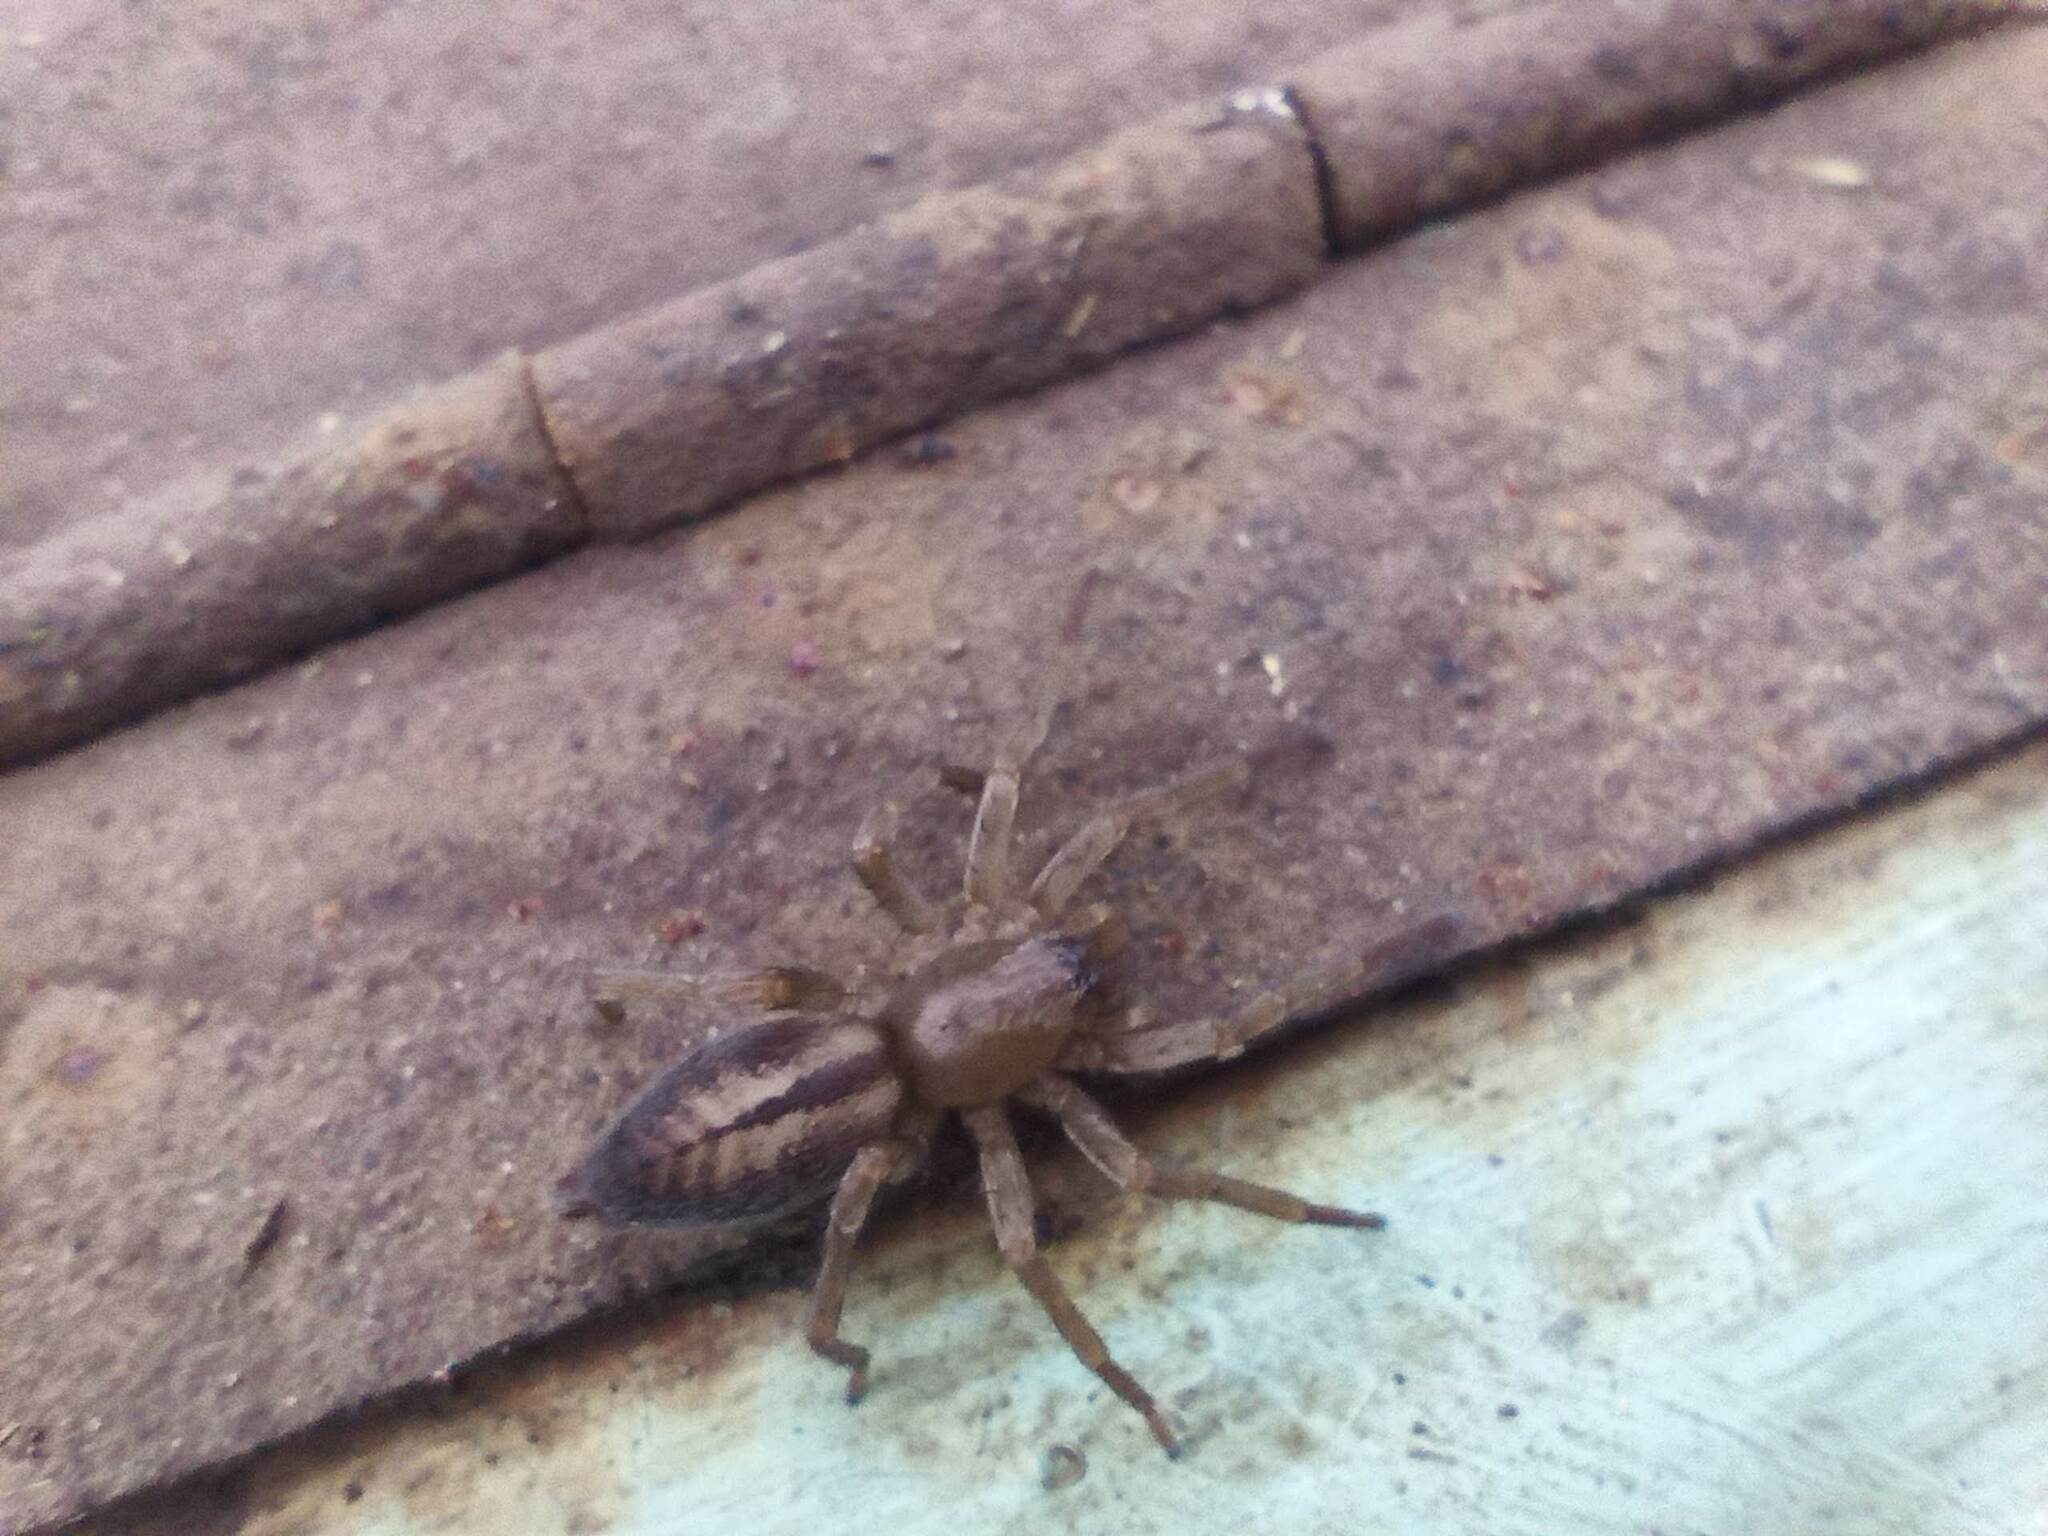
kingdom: Animalia
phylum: Arthropoda
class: Arachnida
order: Araneae
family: Clubionidae
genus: Clubiona
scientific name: Clubiona corticalis
